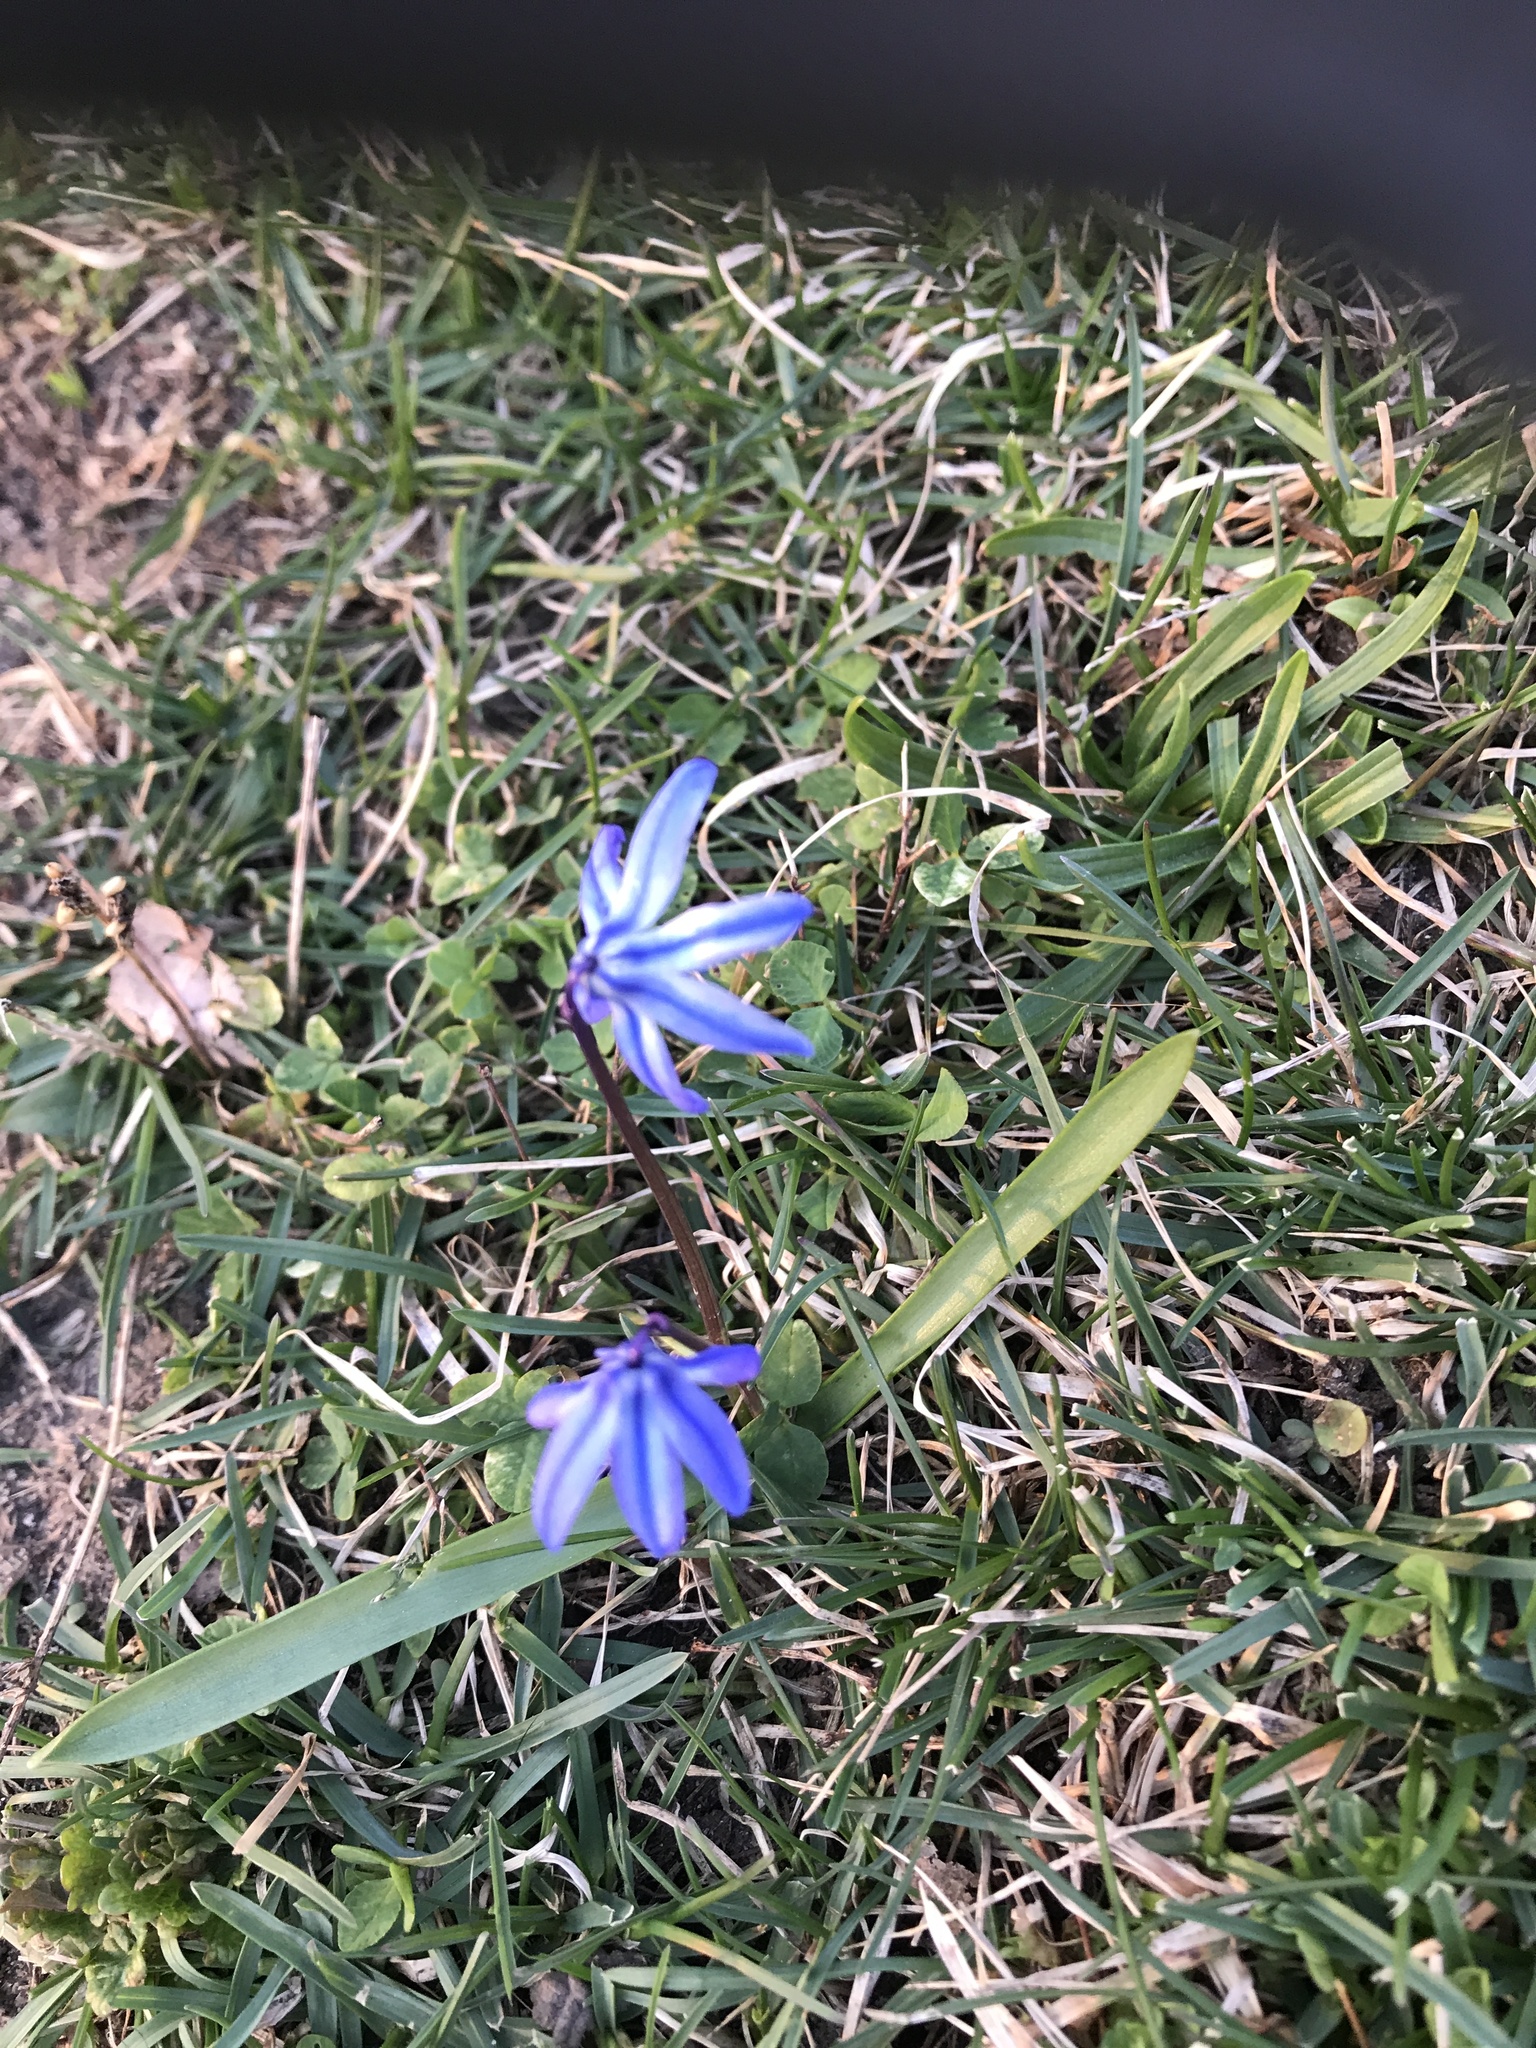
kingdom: Plantae
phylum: Tracheophyta
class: Liliopsida
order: Asparagales
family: Asparagaceae
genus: Scilla
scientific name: Scilla siberica
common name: Siberian squill
